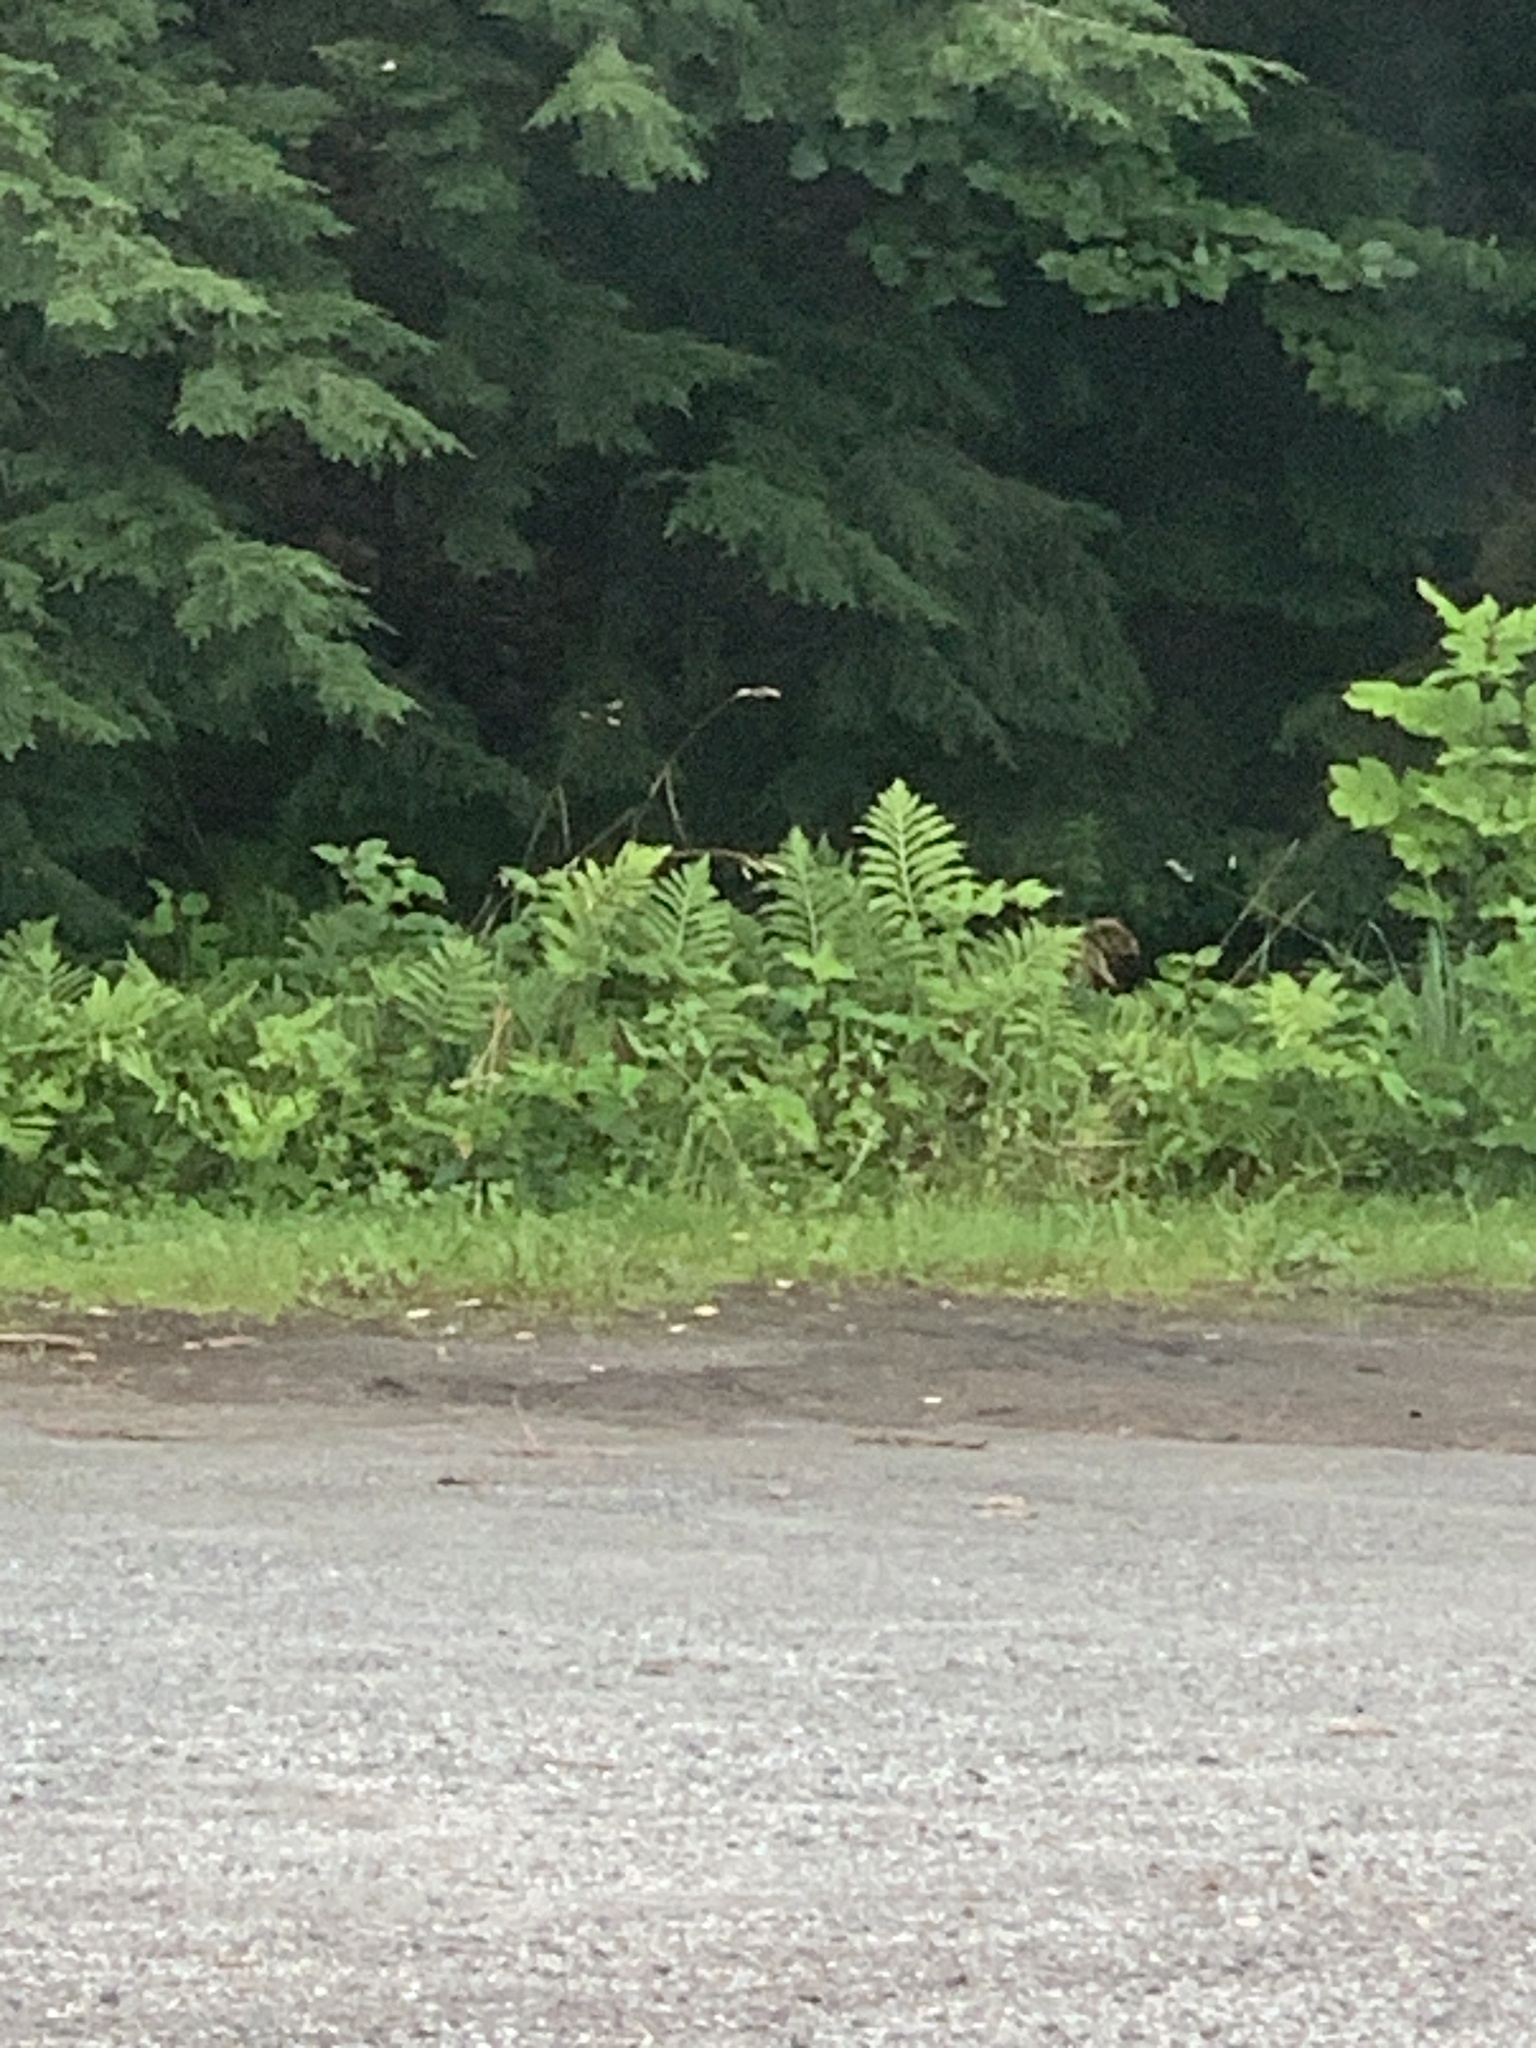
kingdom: Plantae
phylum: Tracheophyta
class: Polypodiopsida
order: Polypodiales
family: Onocleaceae
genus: Onoclea
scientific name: Onoclea sensibilis
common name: Sensitive fern
